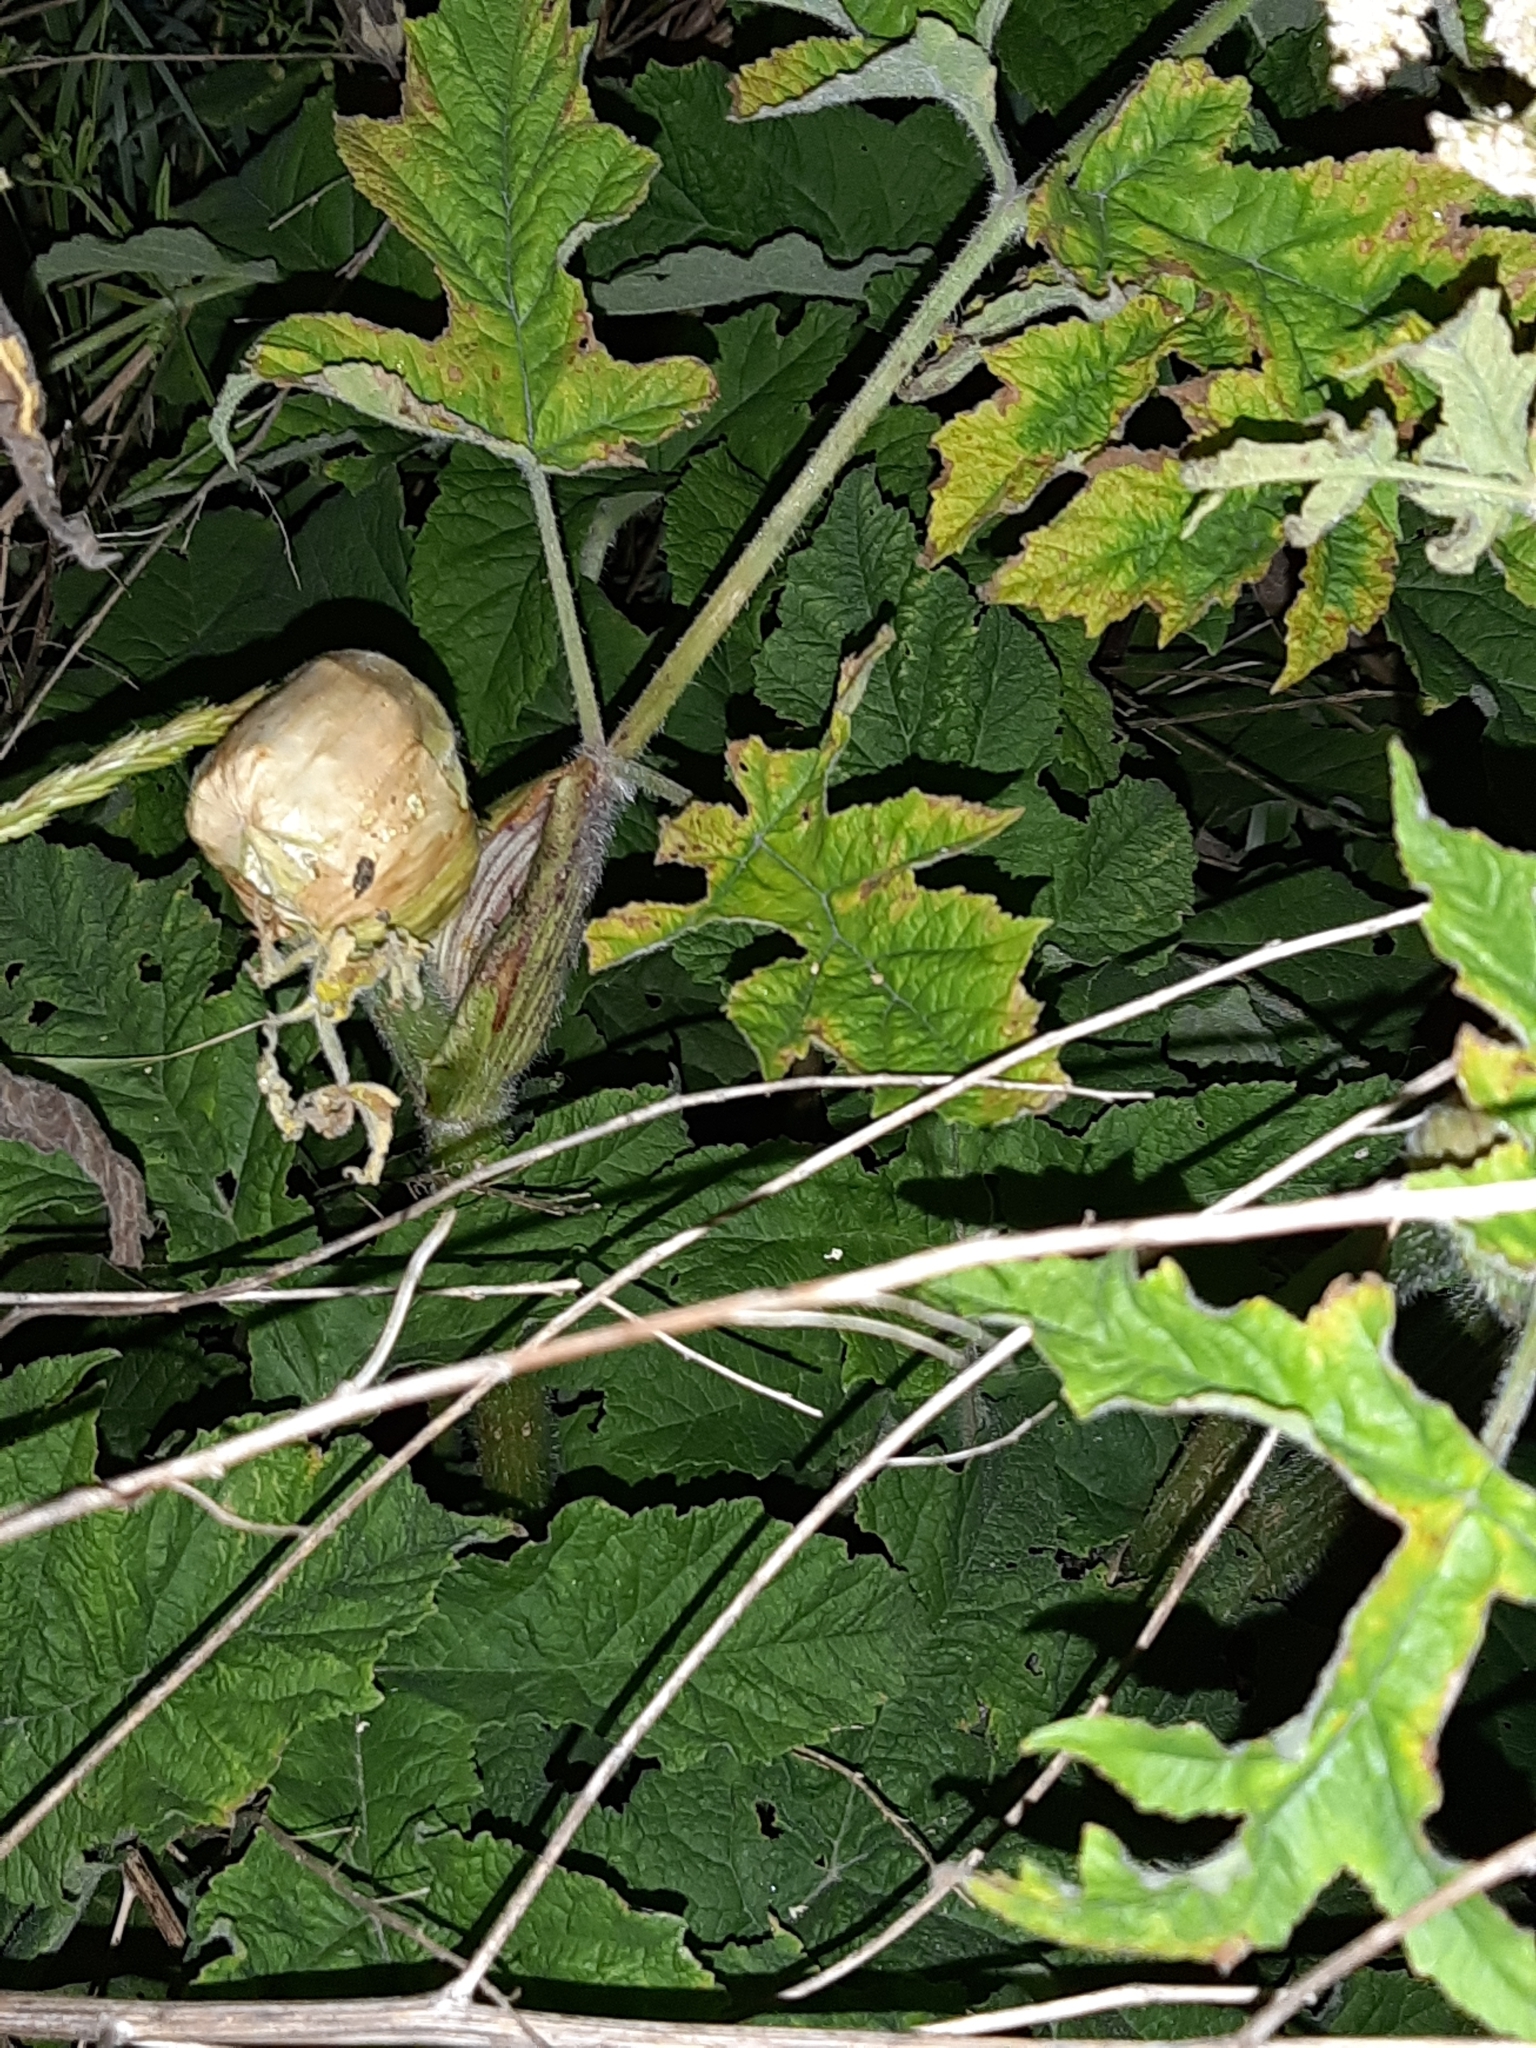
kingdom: Plantae
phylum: Tracheophyta
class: Magnoliopsida
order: Apiales
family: Apiaceae
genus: Heracleum
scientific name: Heracleum sphondylium
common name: Hogweed
